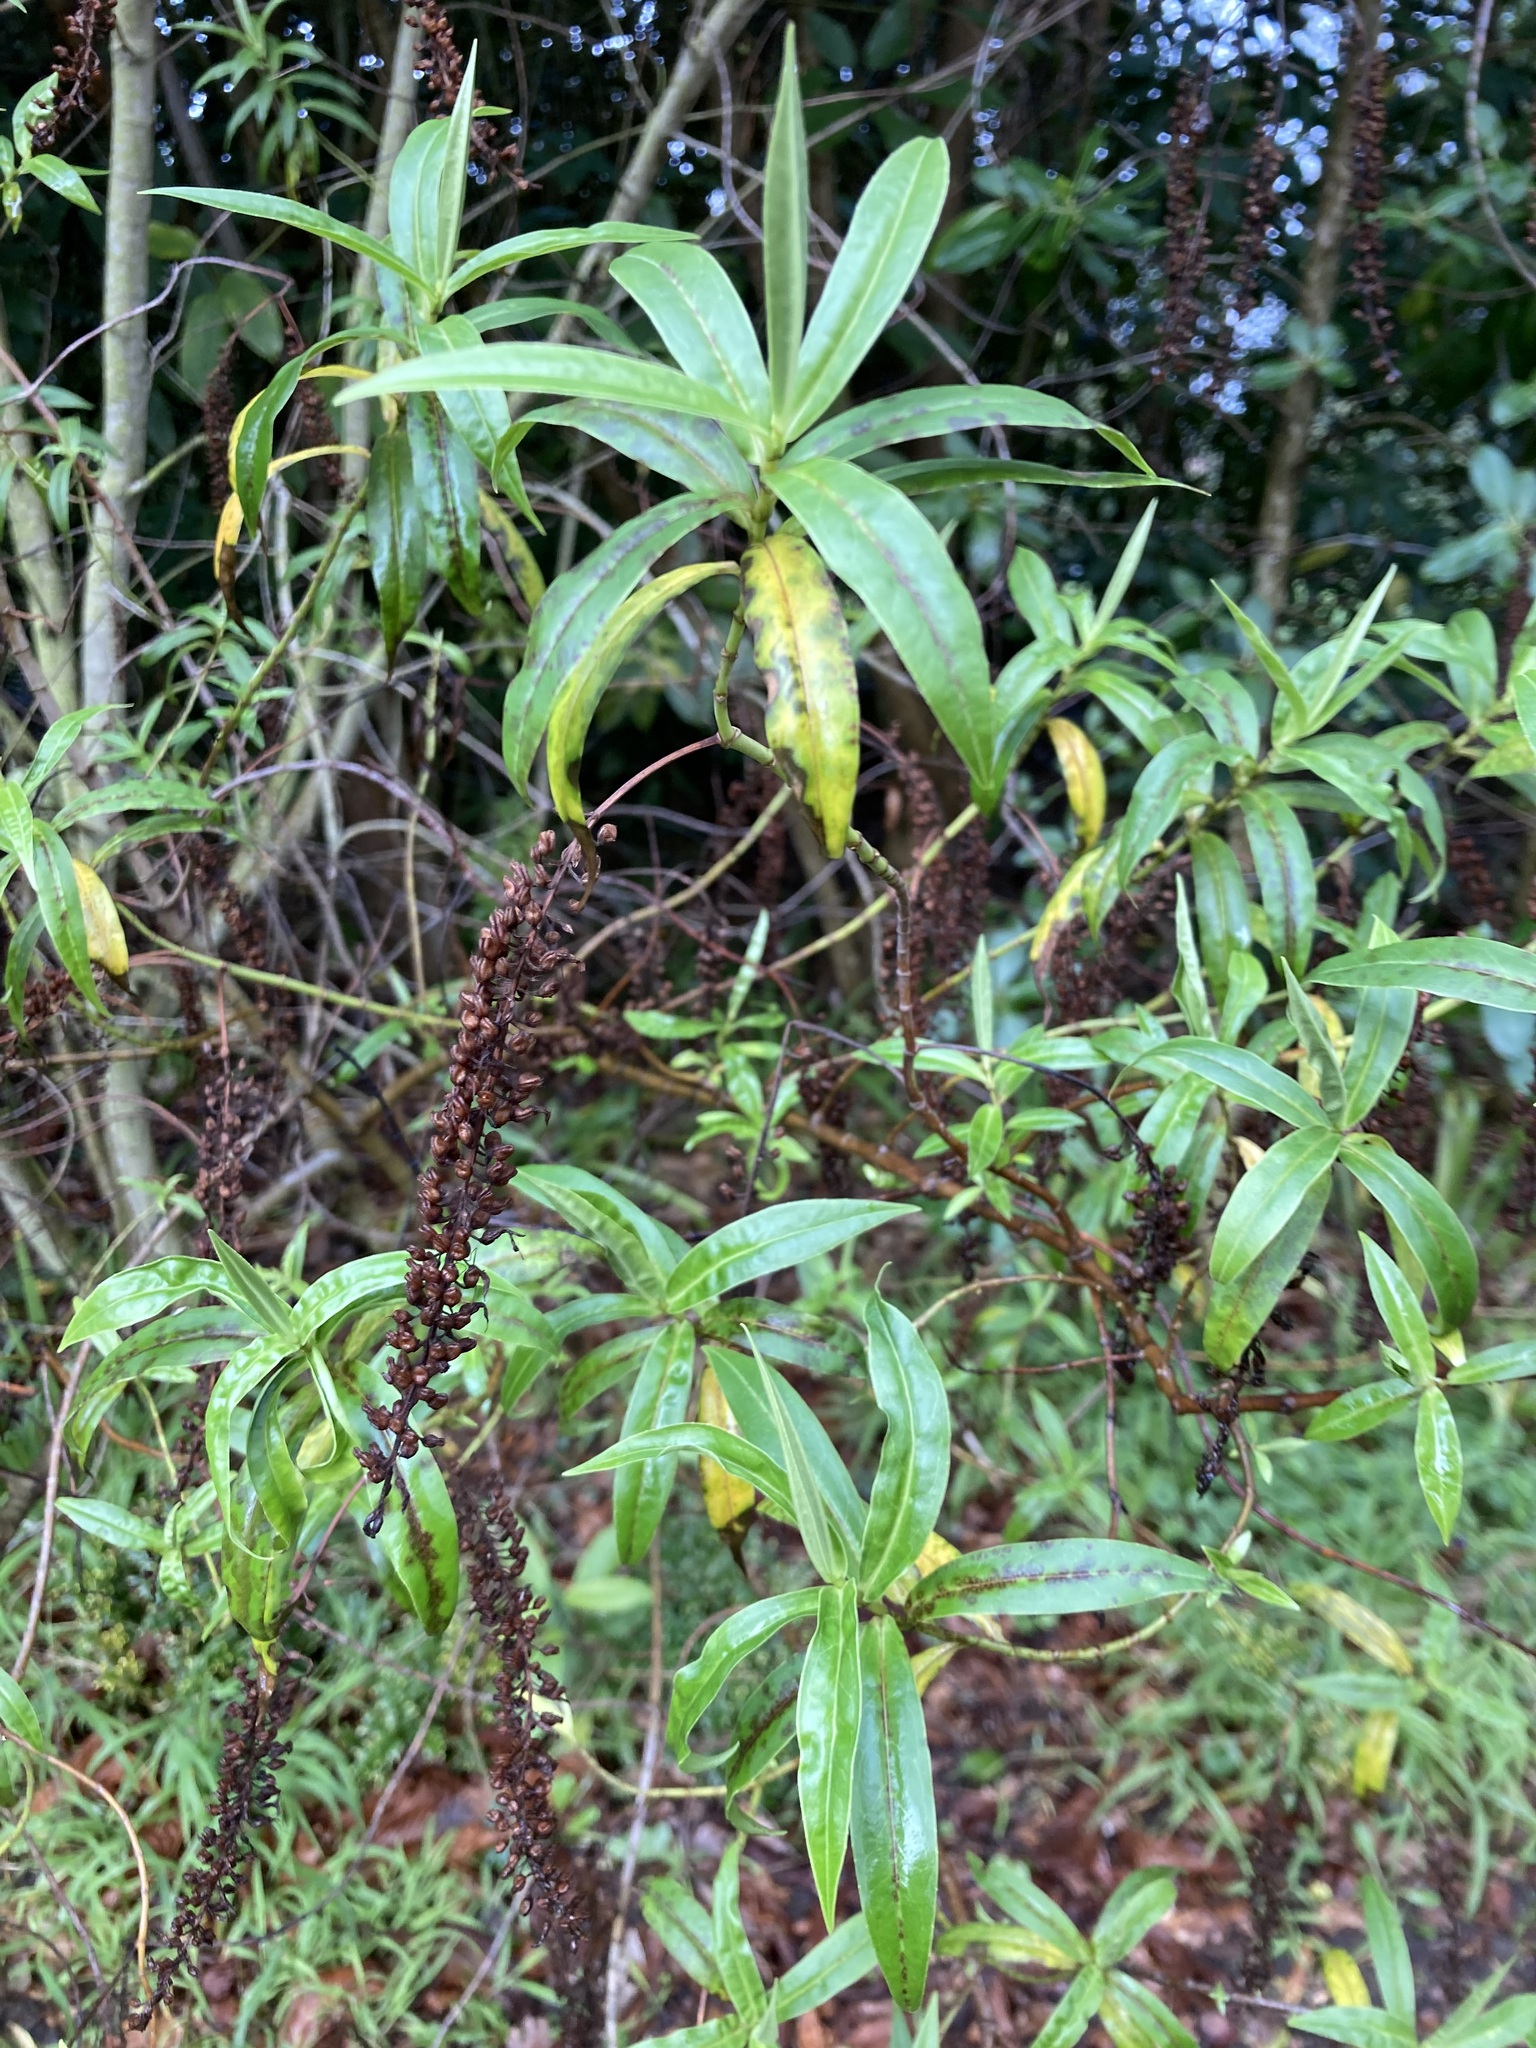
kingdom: Plantae
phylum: Tracheophyta
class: Magnoliopsida
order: Lamiales
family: Plantaginaceae
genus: Veronica
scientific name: Veronica salicifolia
